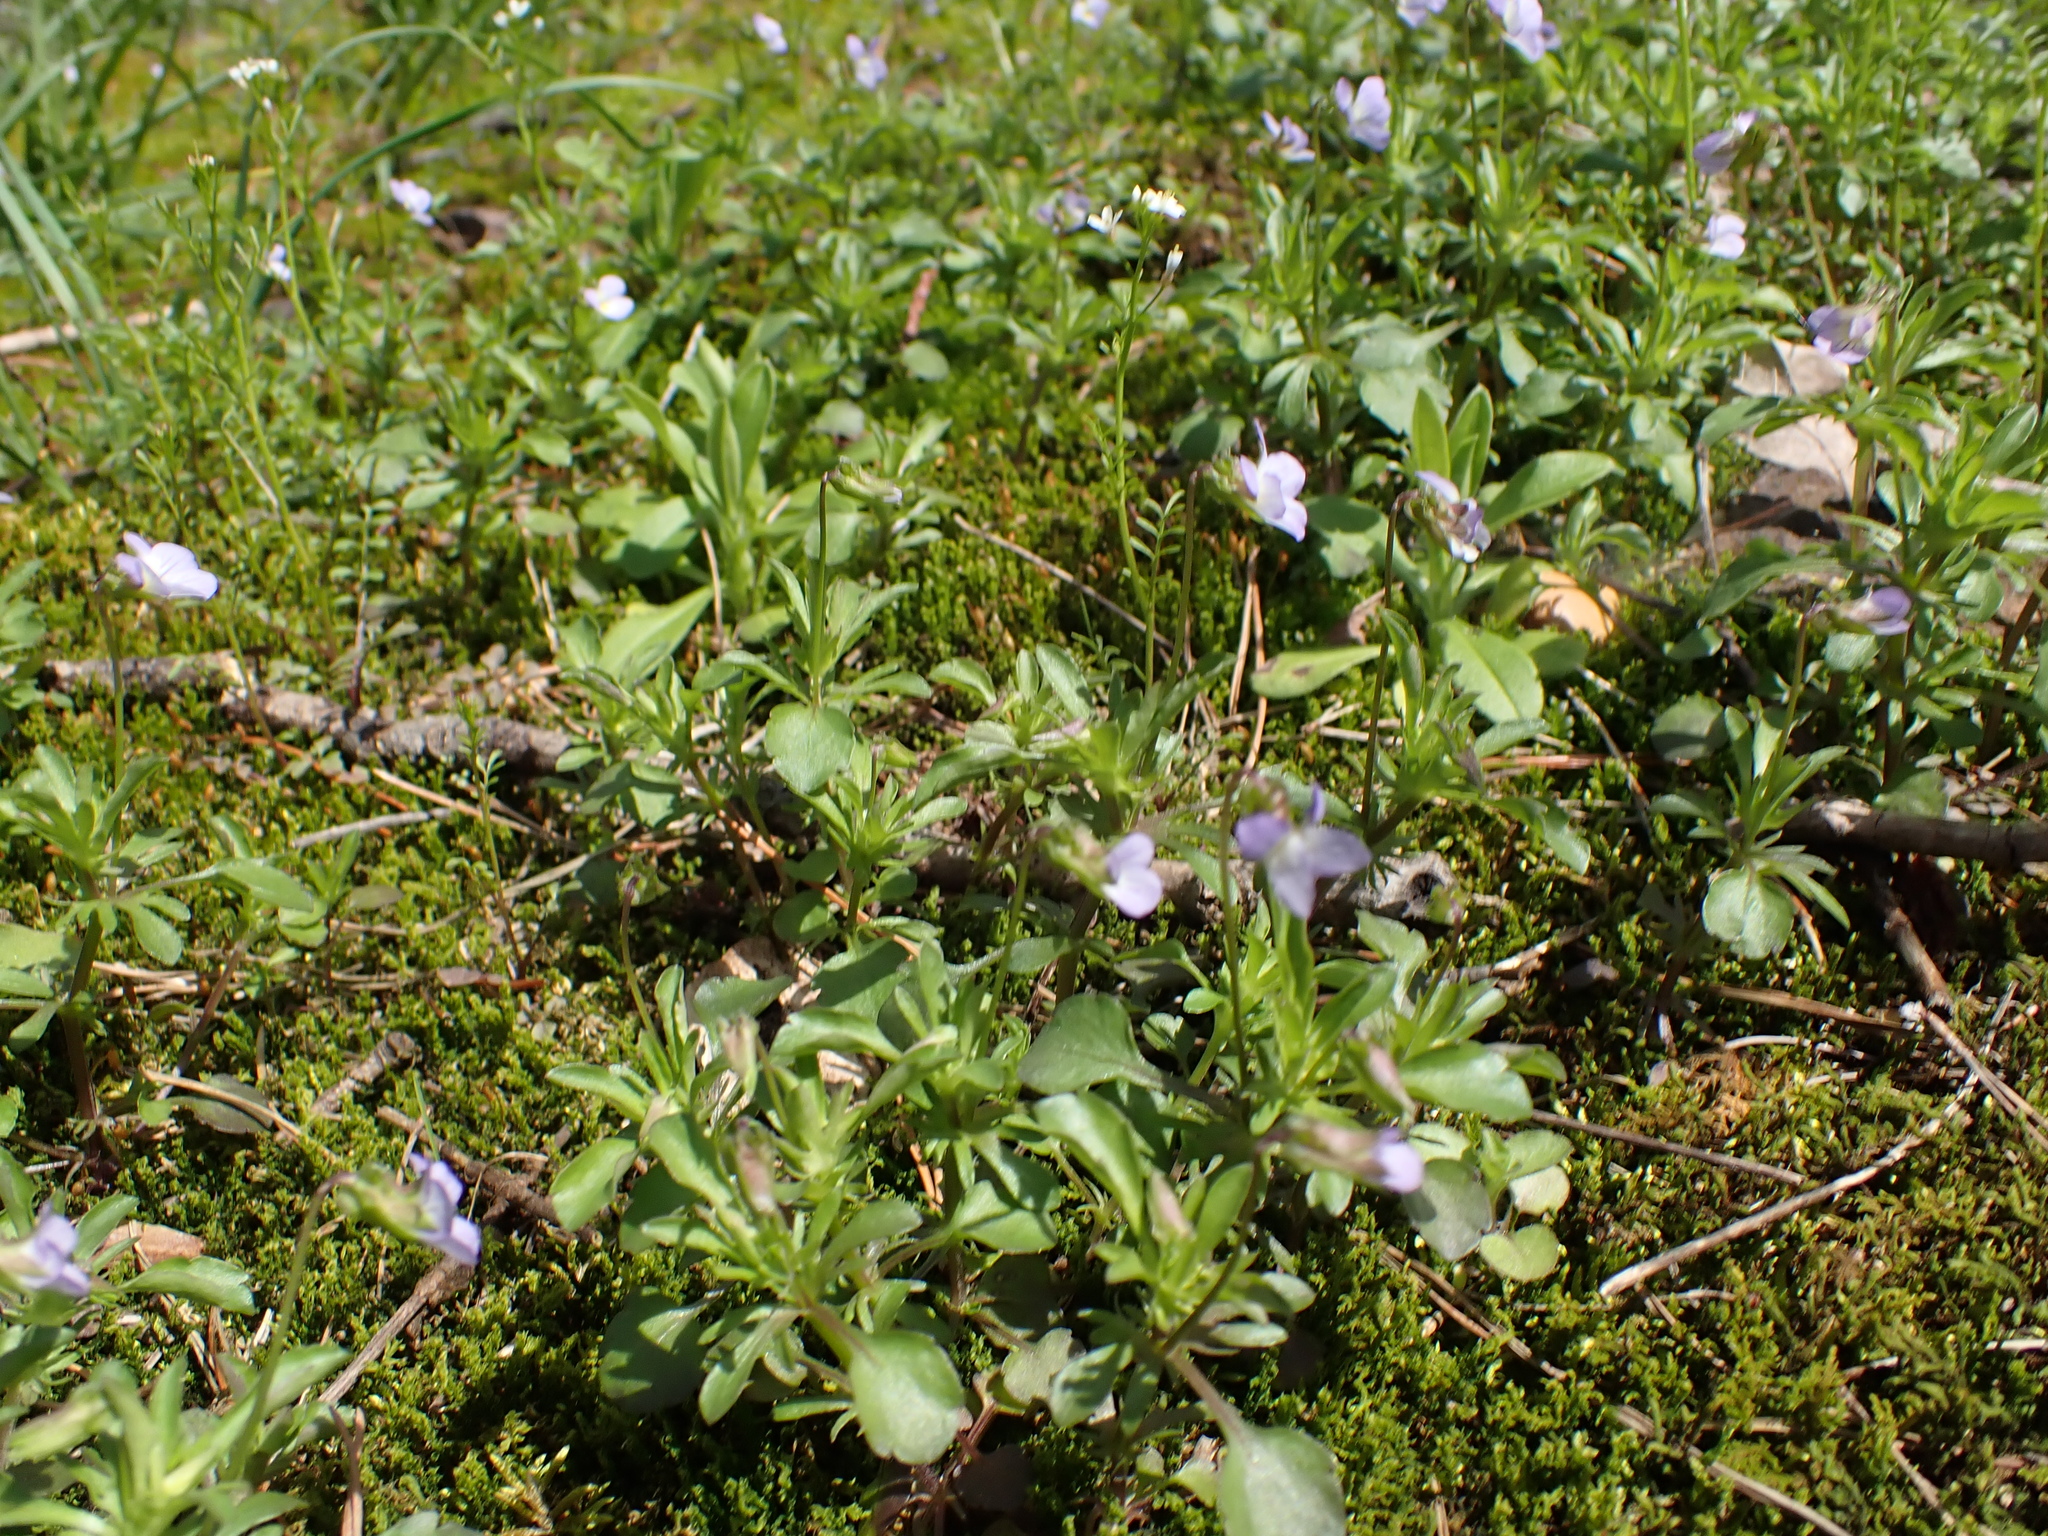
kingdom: Plantae
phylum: Tracheophyta
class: Magnoliopsida
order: Malpighiales
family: Violaceae
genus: Viola
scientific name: Viola rafinesquei
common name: American field pansy
